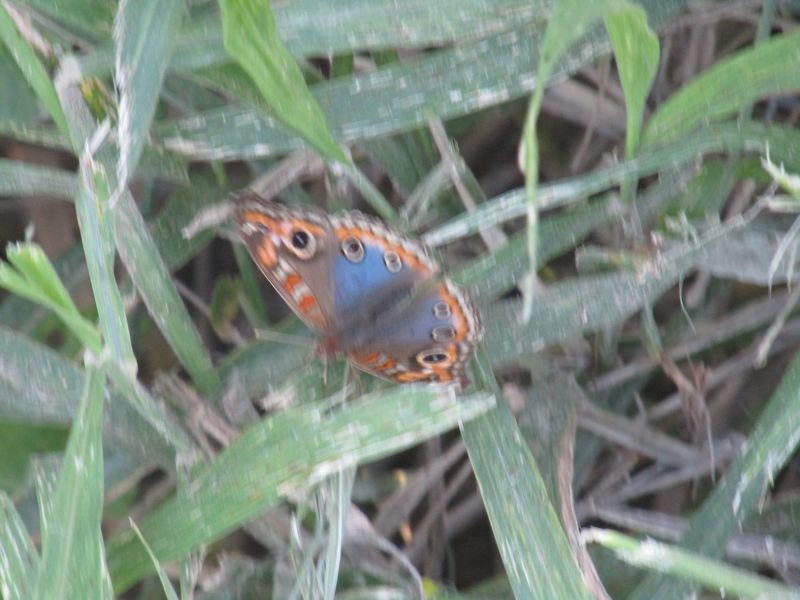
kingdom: Animalia
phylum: Arthropoda
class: Insecta
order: Lepidoptera
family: Nymphalidae
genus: Junonia
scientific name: Junonia lavinia
